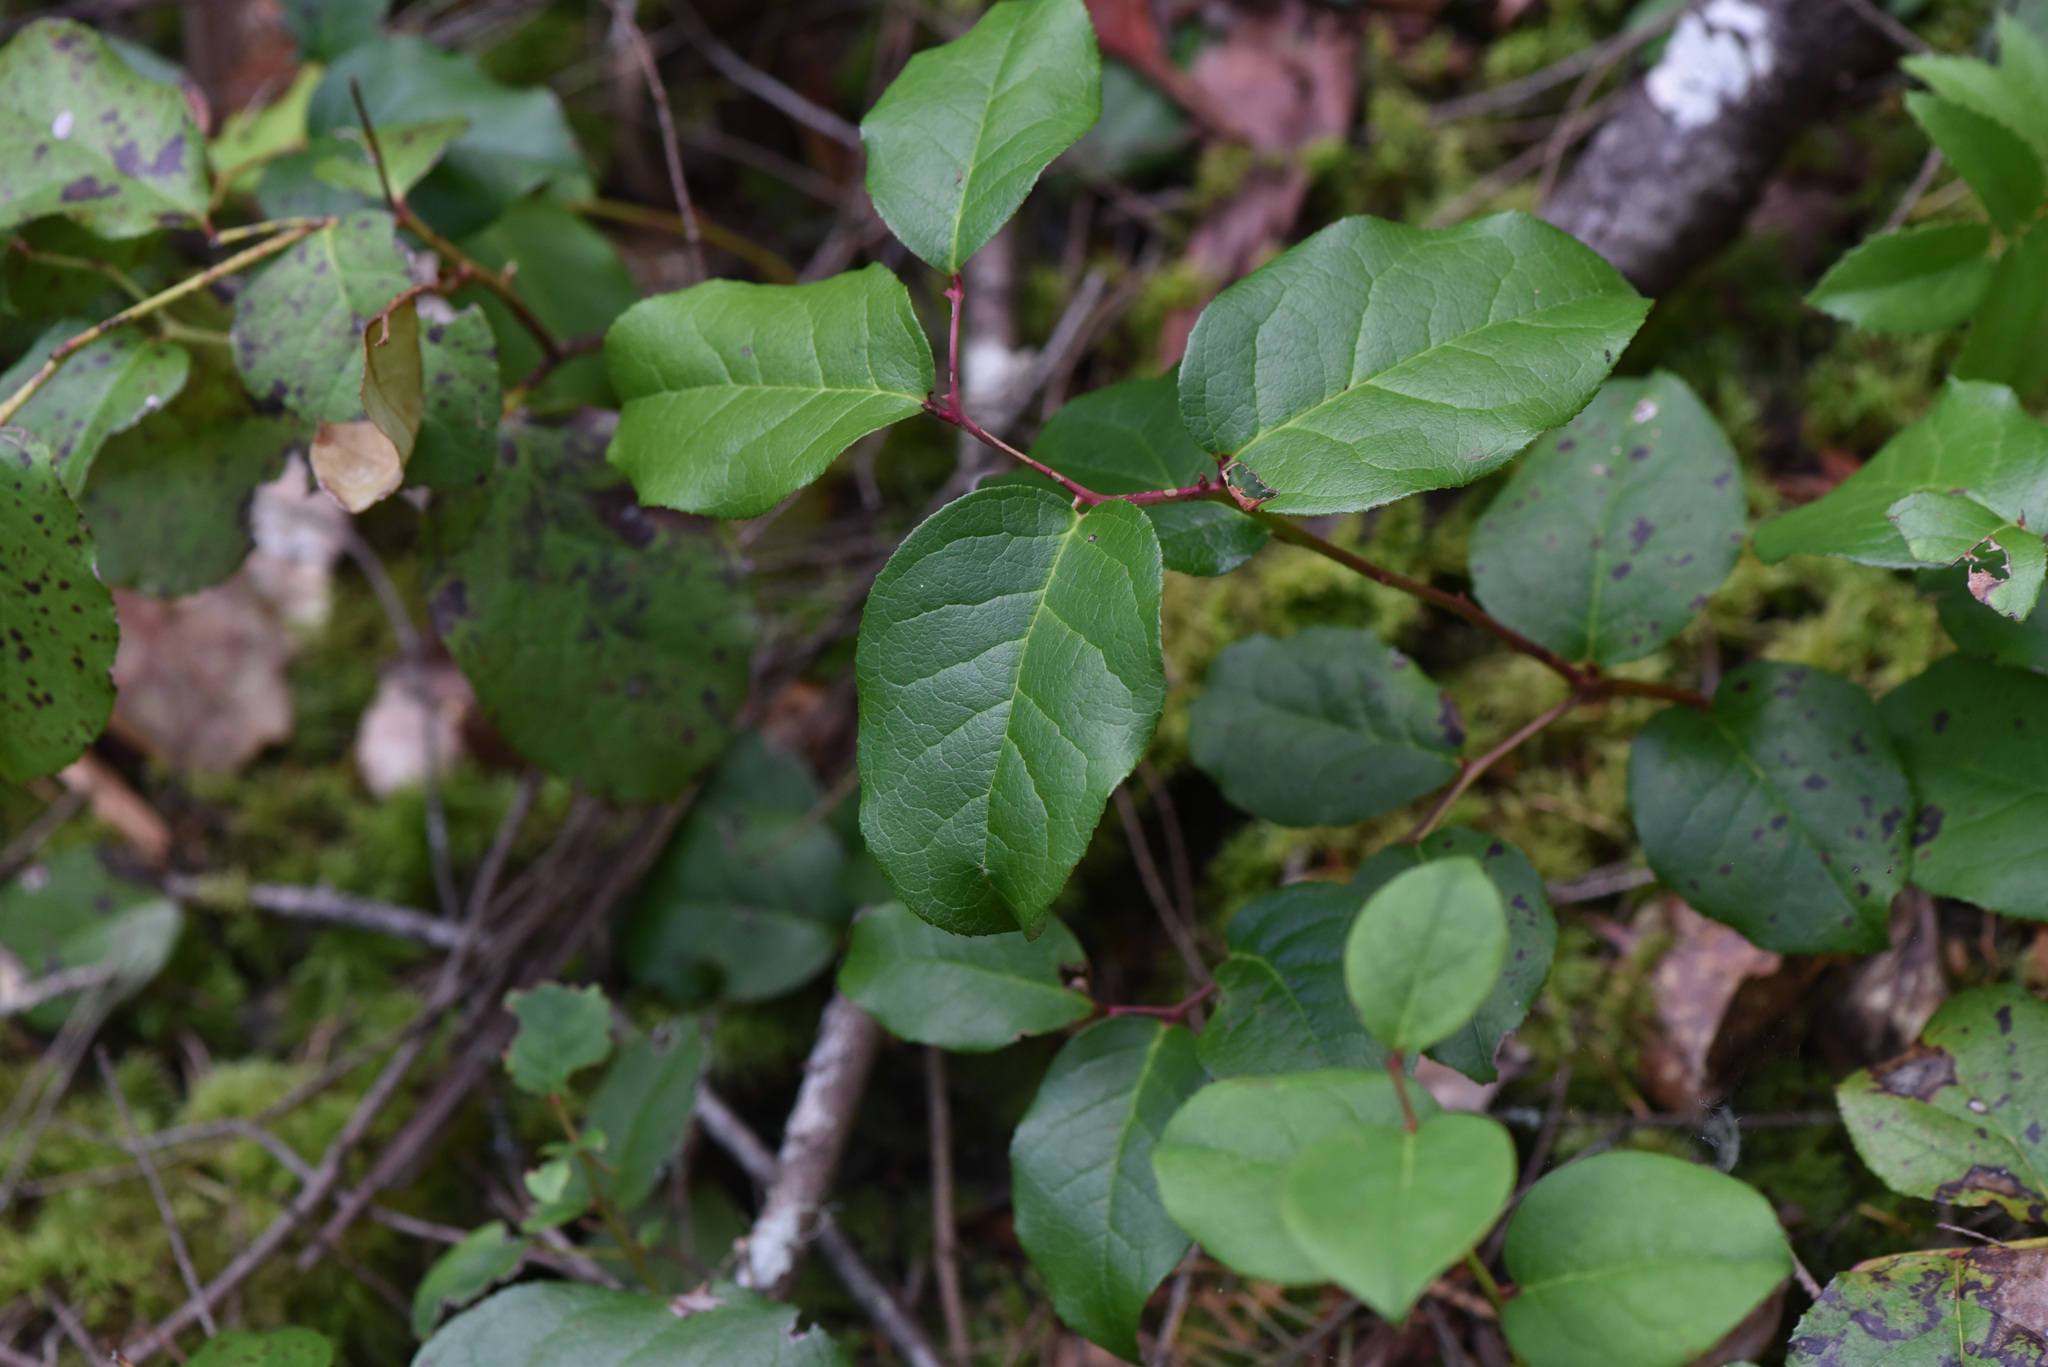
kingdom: Plantae
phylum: Tracheophyta
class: Magnoliopsida
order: Ericales
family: Ericaceae
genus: Gaultheria
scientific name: Gaultheria shallon
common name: Shallon
